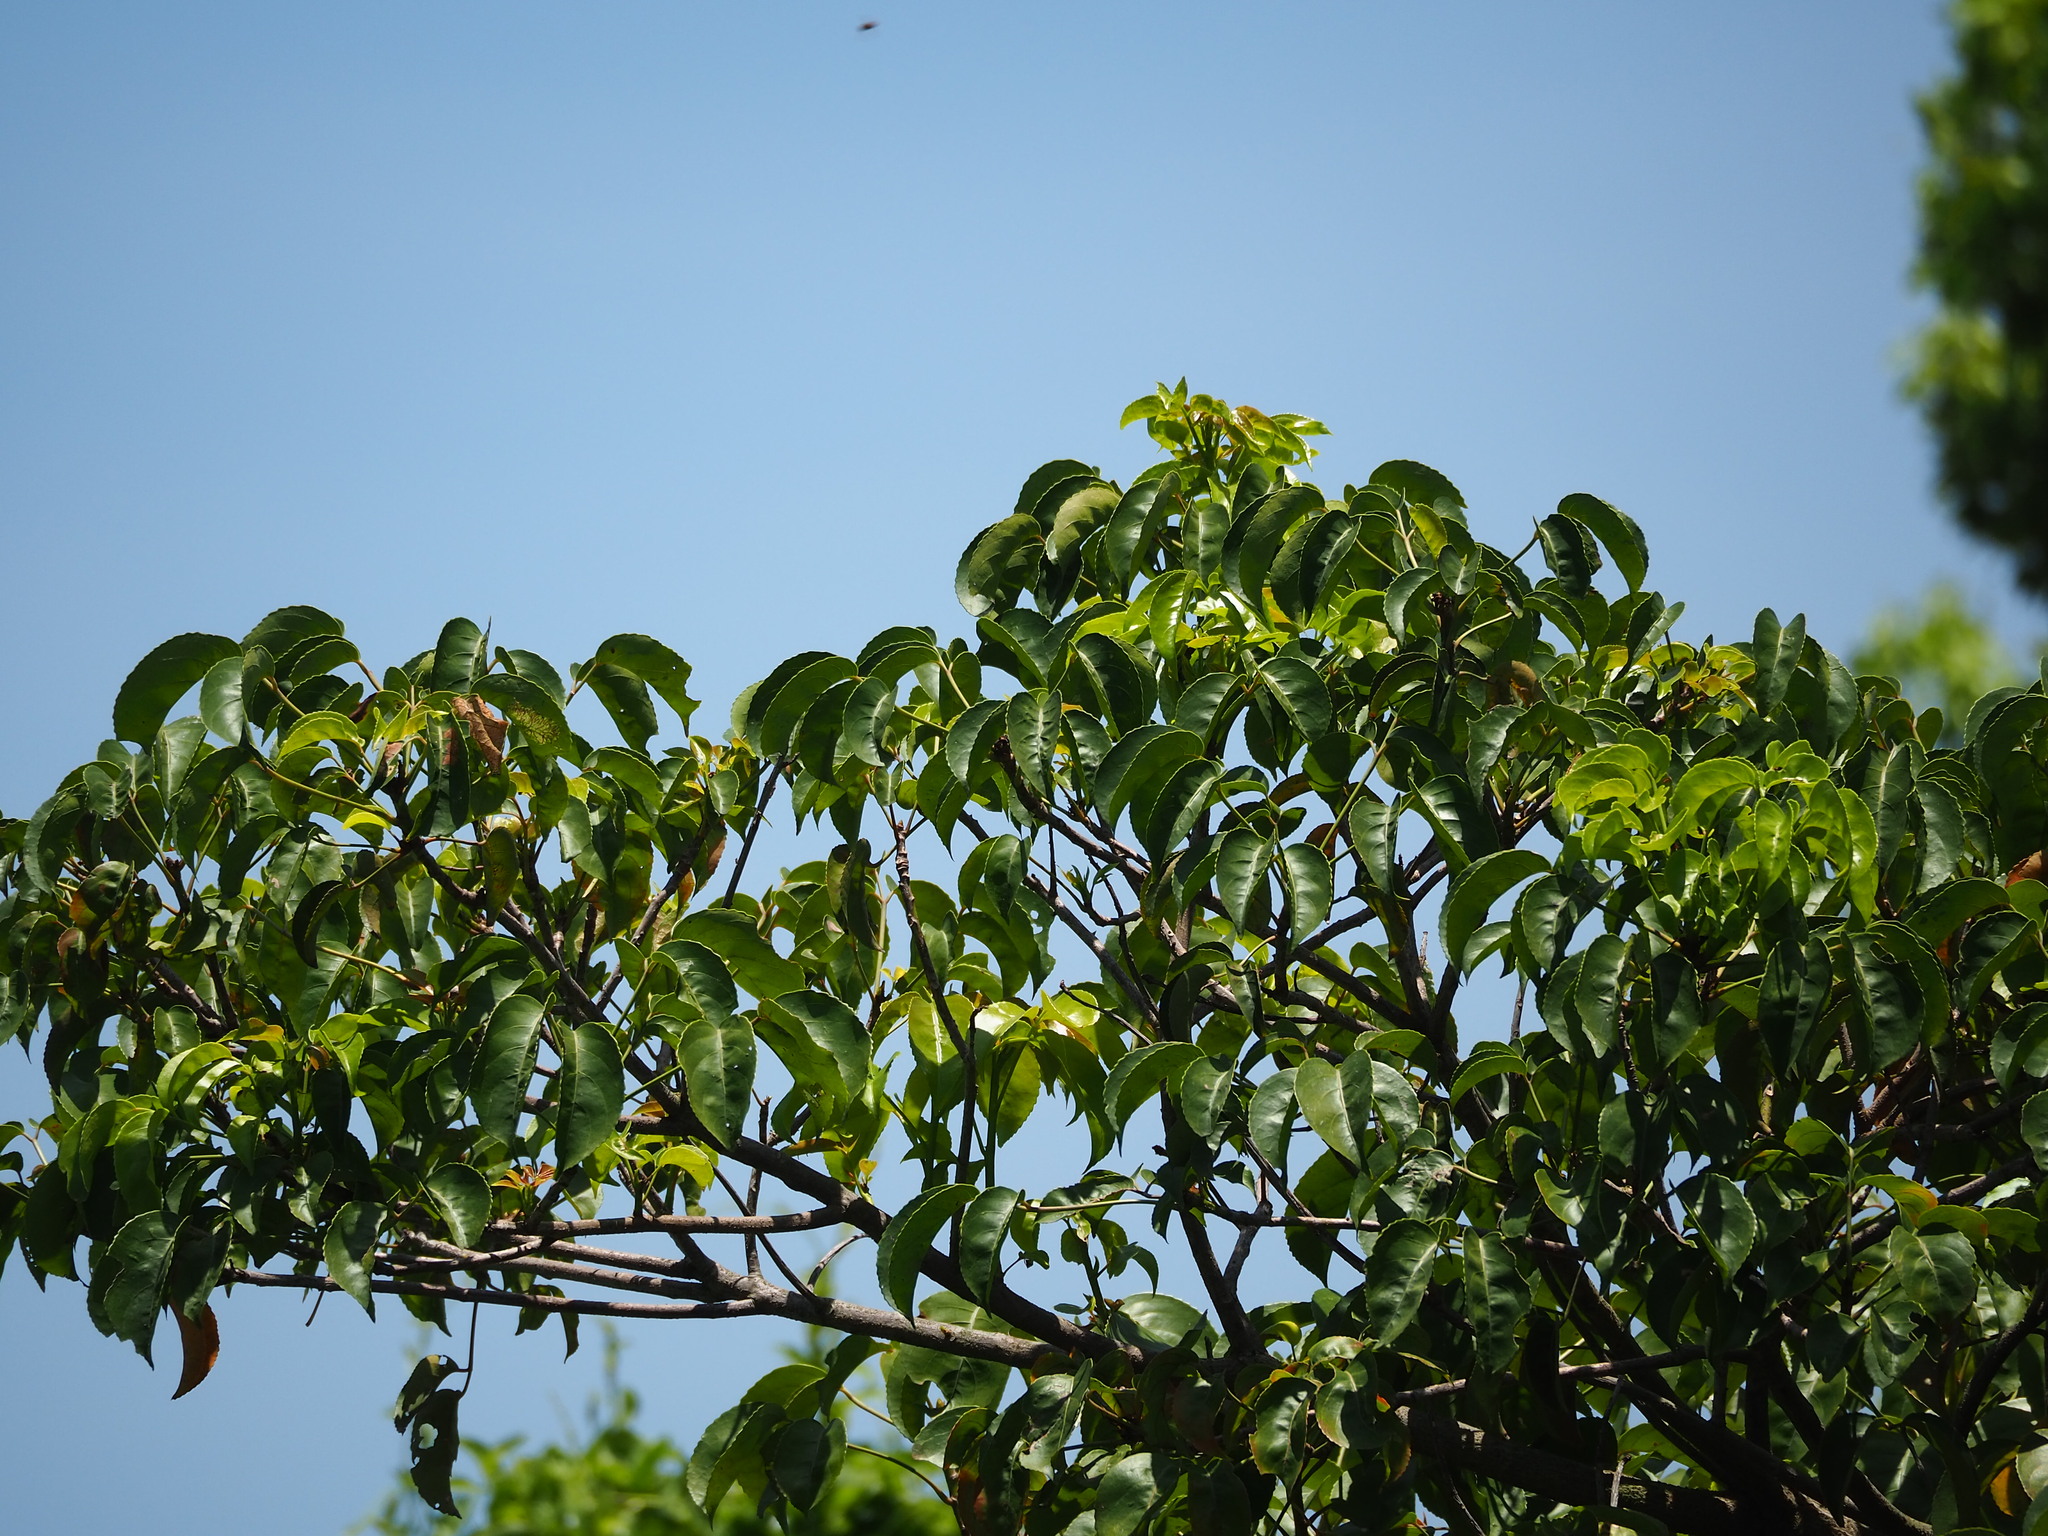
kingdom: Plantae
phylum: Tracheophyta
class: Magnoliopsida
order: Malpighiales
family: Phyllanthaceae
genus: Bischofia
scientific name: Bischofia javanica
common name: Javanese bishopwood
